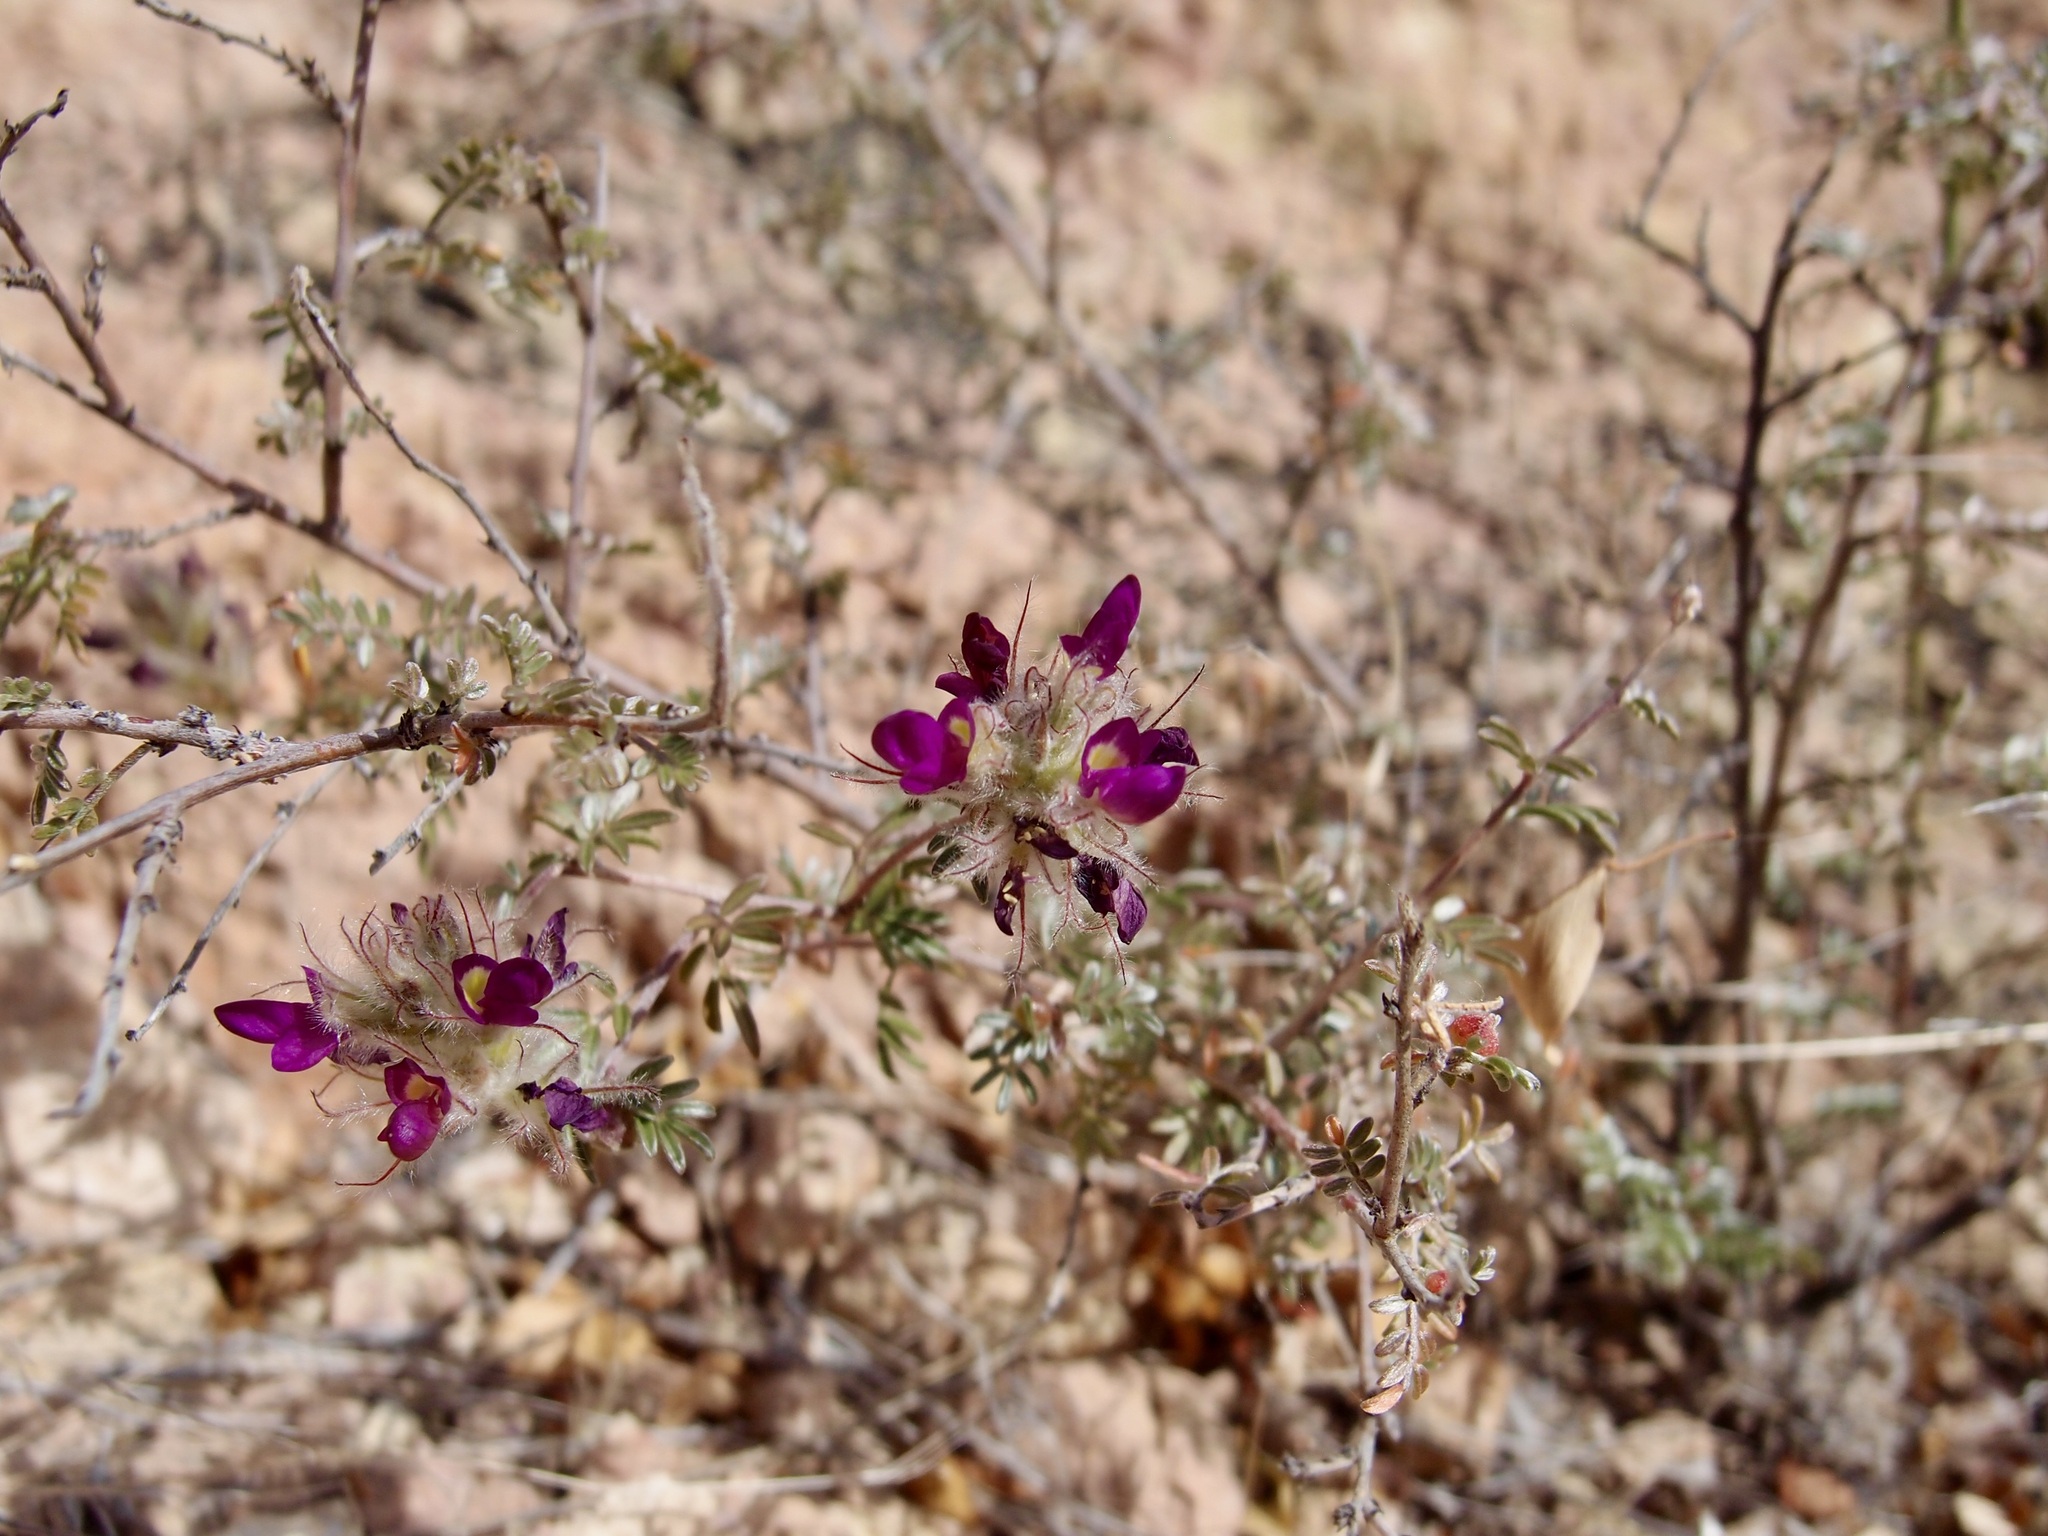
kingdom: Plantae
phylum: Tracheophyta
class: Magnoliopsida
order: Fabales
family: Fabaceae
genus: Dalea
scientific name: Dalea purpusii
